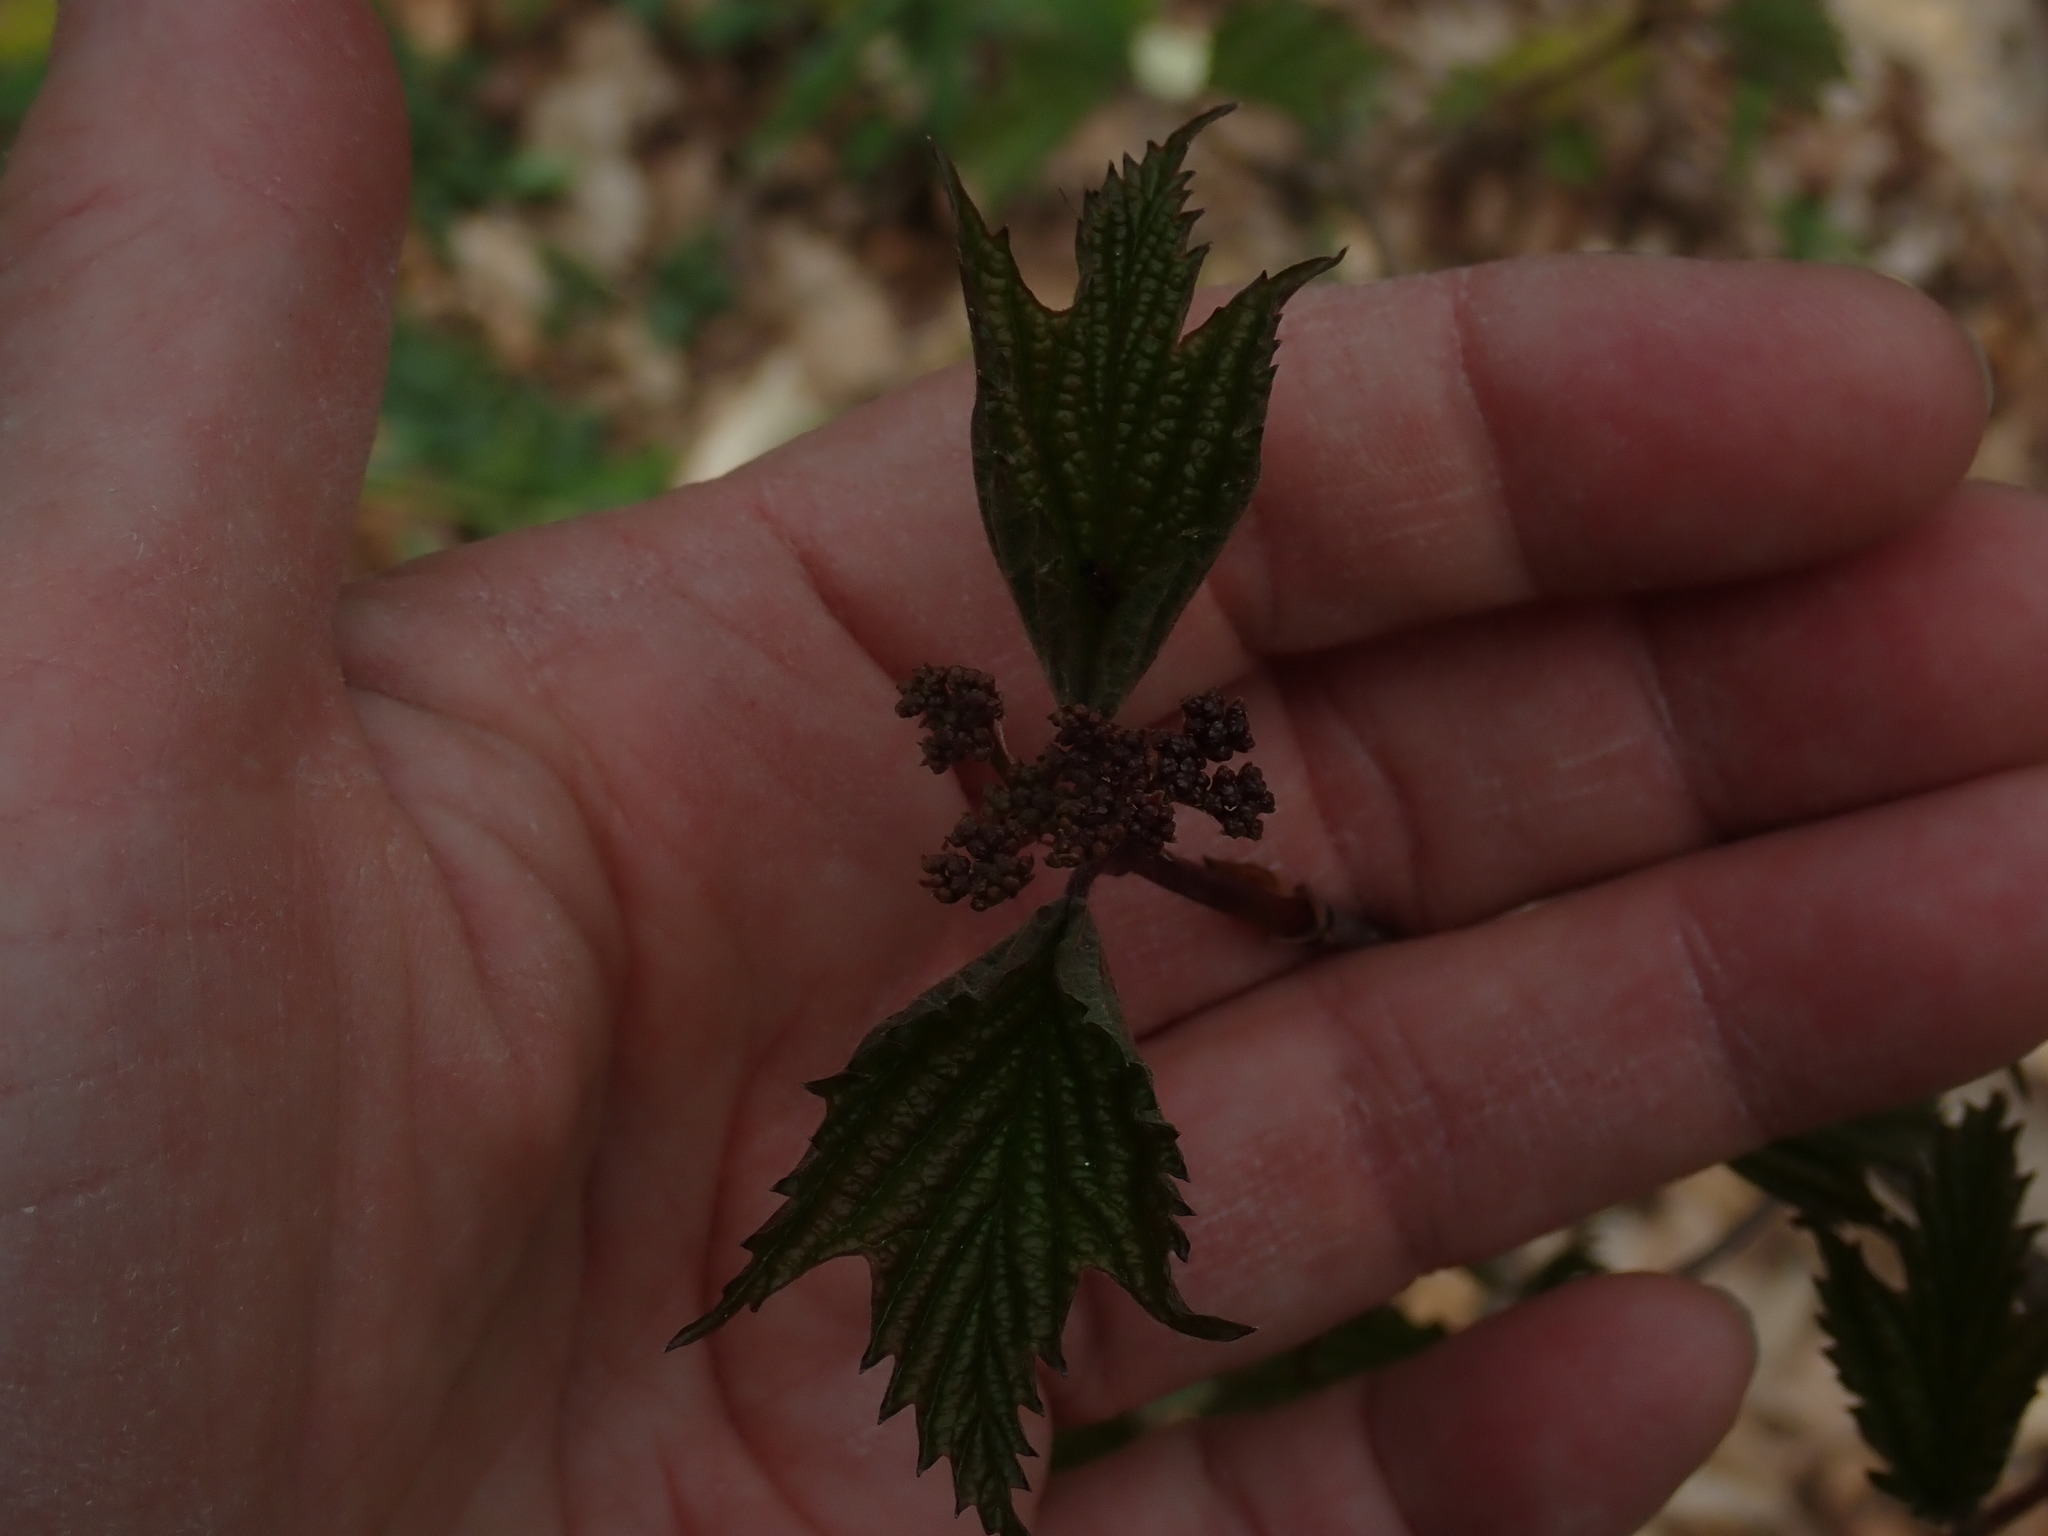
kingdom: Plantae
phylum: Tracheophyta
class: Magnoliopsida
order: Dipsacales
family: Viburnaceae
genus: Viburnum
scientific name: Viburnum acerifolium
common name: Dockmackie
